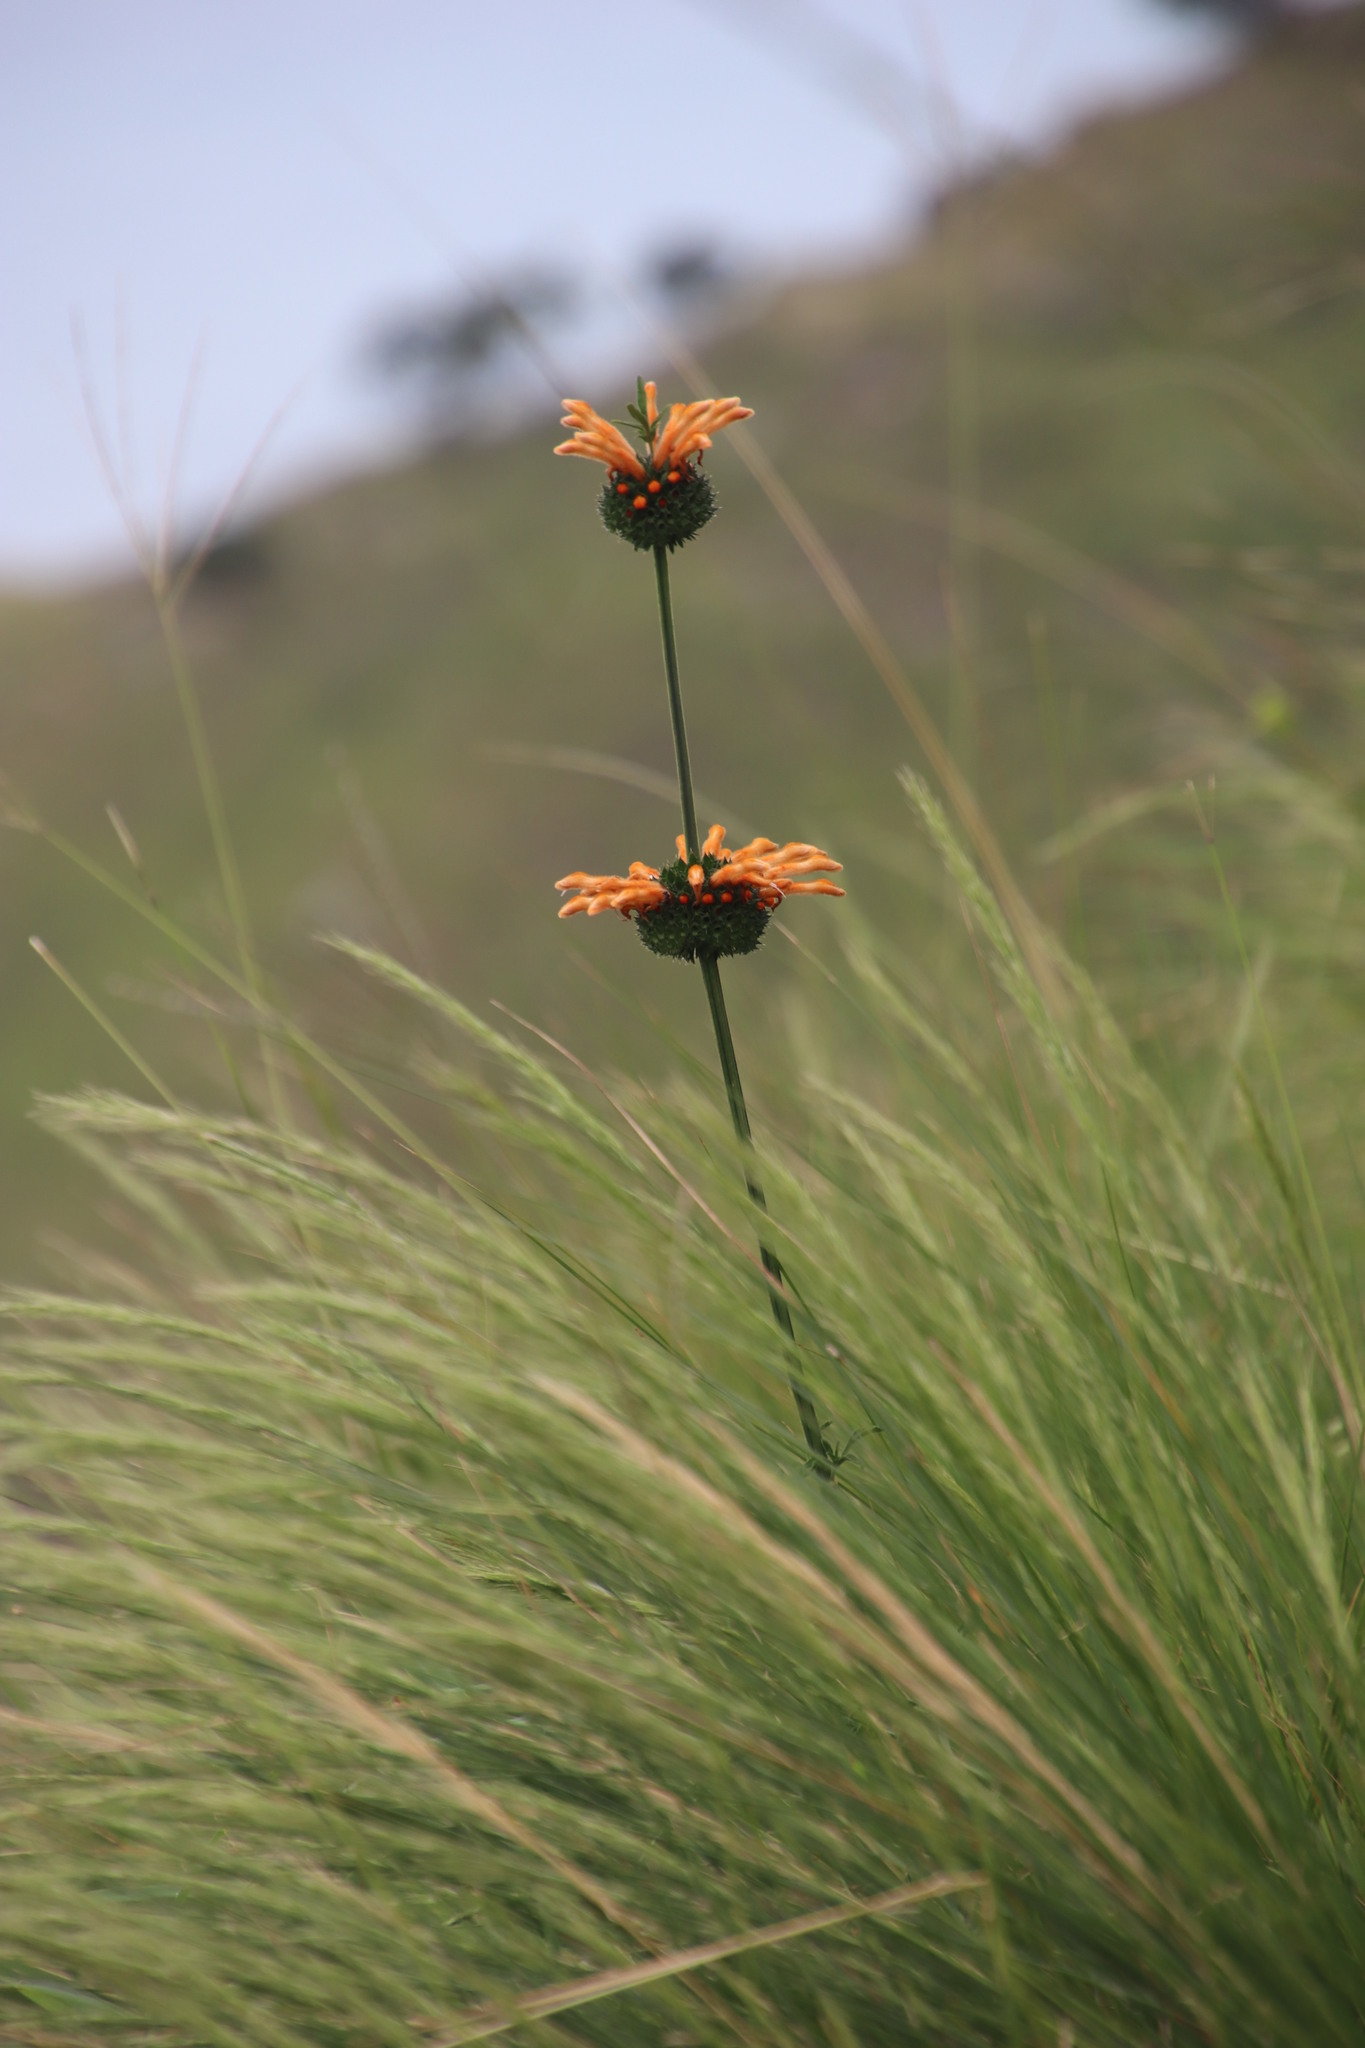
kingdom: Plantae
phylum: Tracheophyta
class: Magnoliopsida
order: Lamiales
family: Lamiaceae
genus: Leonotis
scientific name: Leonotis ocymifolia
